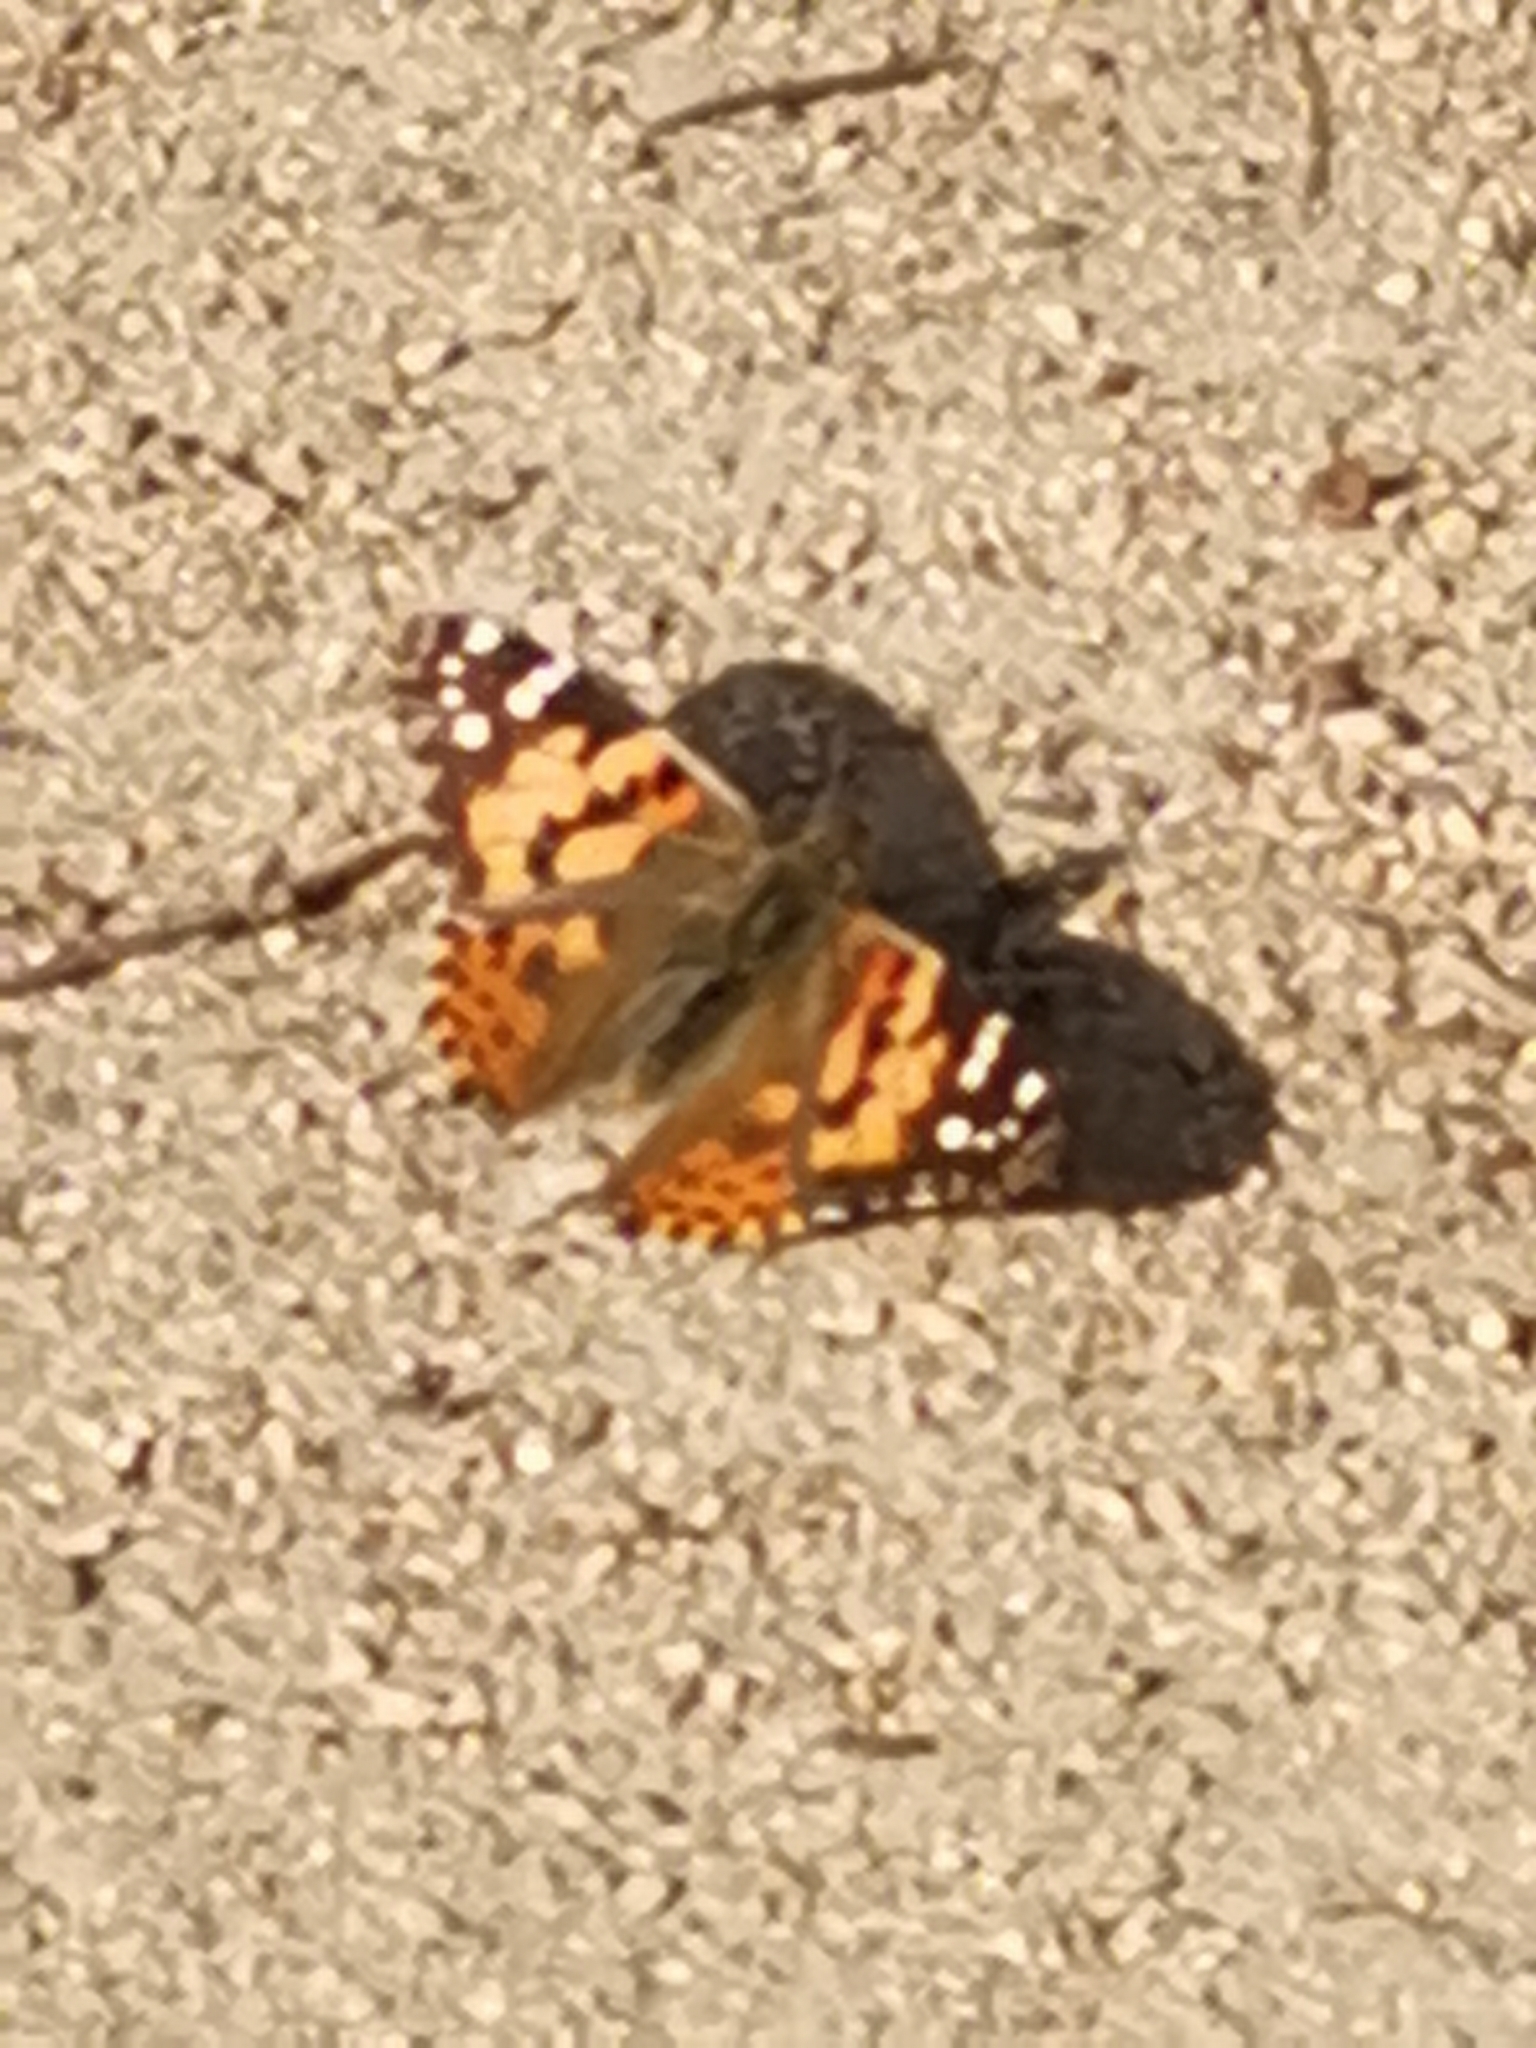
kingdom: Animalia
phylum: Arthropoda
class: Insecta
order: Lepidoptera
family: Nymphalidae
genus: Vanessa
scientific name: Vanessa cardui
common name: Painted lady
